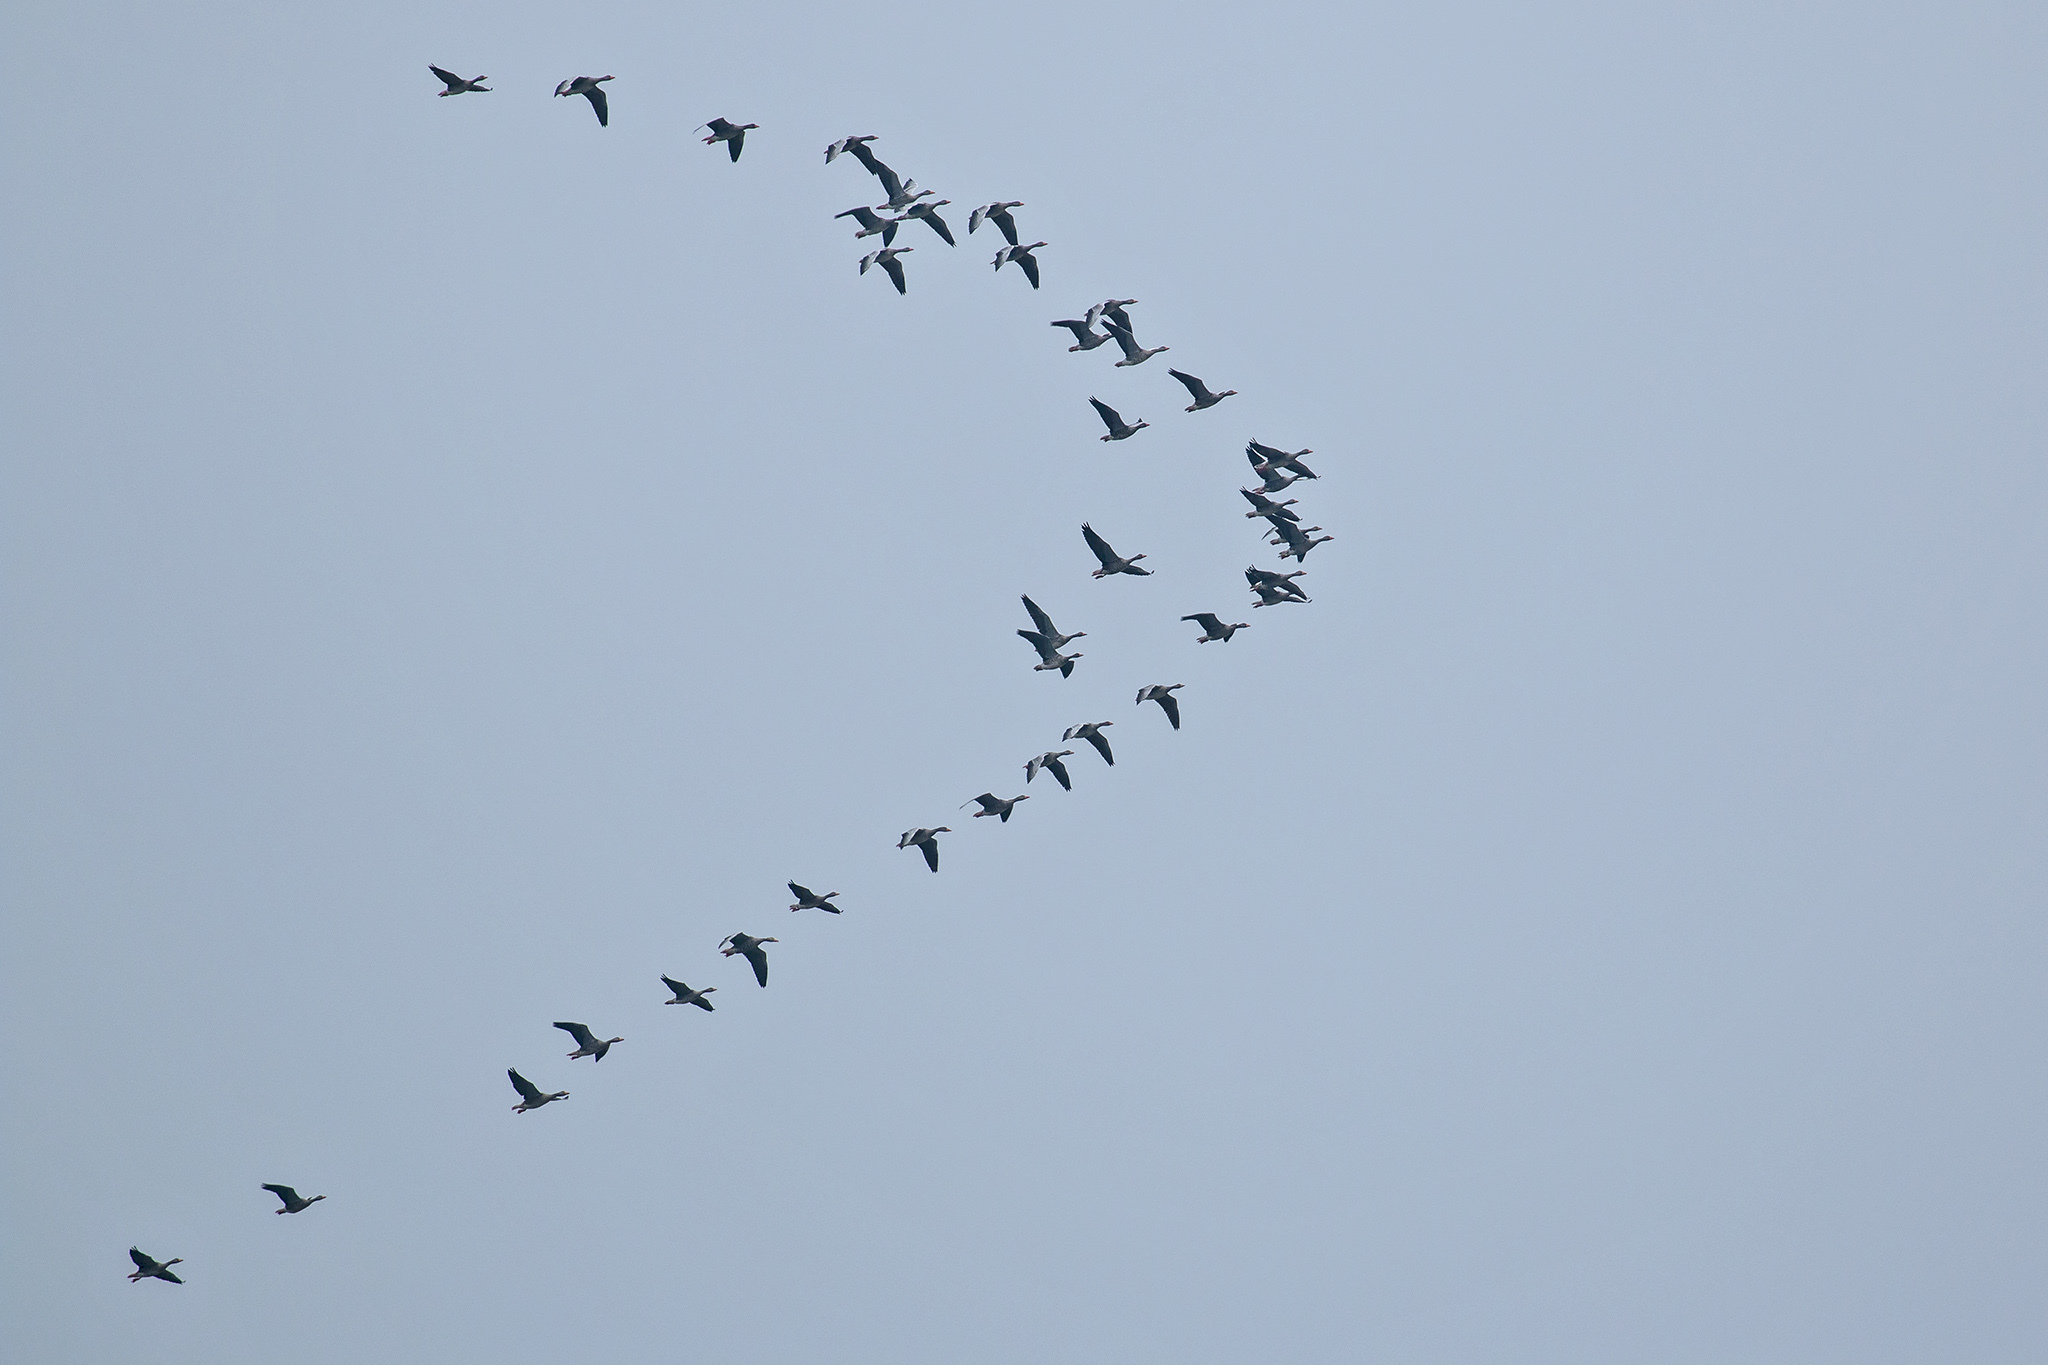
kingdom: Animalia
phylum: Chordata
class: Aves
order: Anseriformes
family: Anatidae
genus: Anser
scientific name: Anser anser
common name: Greylag goose
